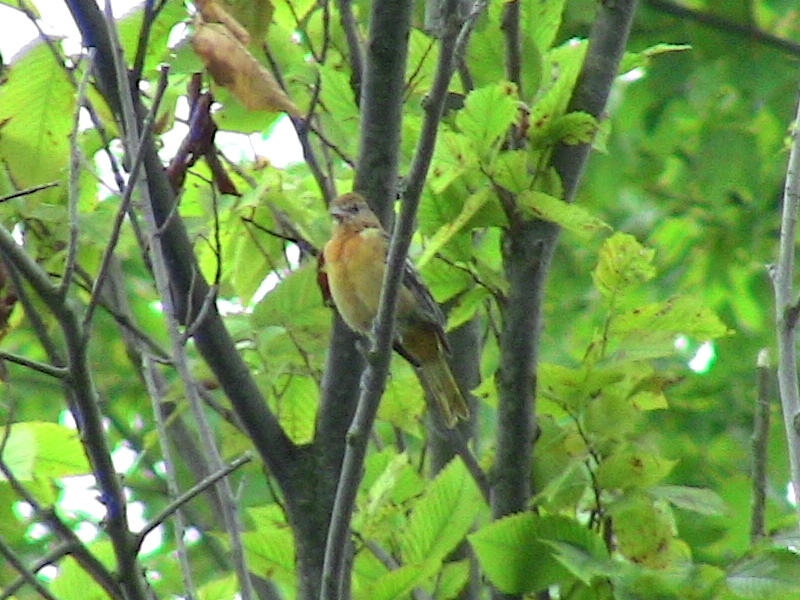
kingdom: Animalia
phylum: Chordata
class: Aves
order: Passeriformes
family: Icteridae
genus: Icterus
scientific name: Icterus galbula
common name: Baltimore oriole
